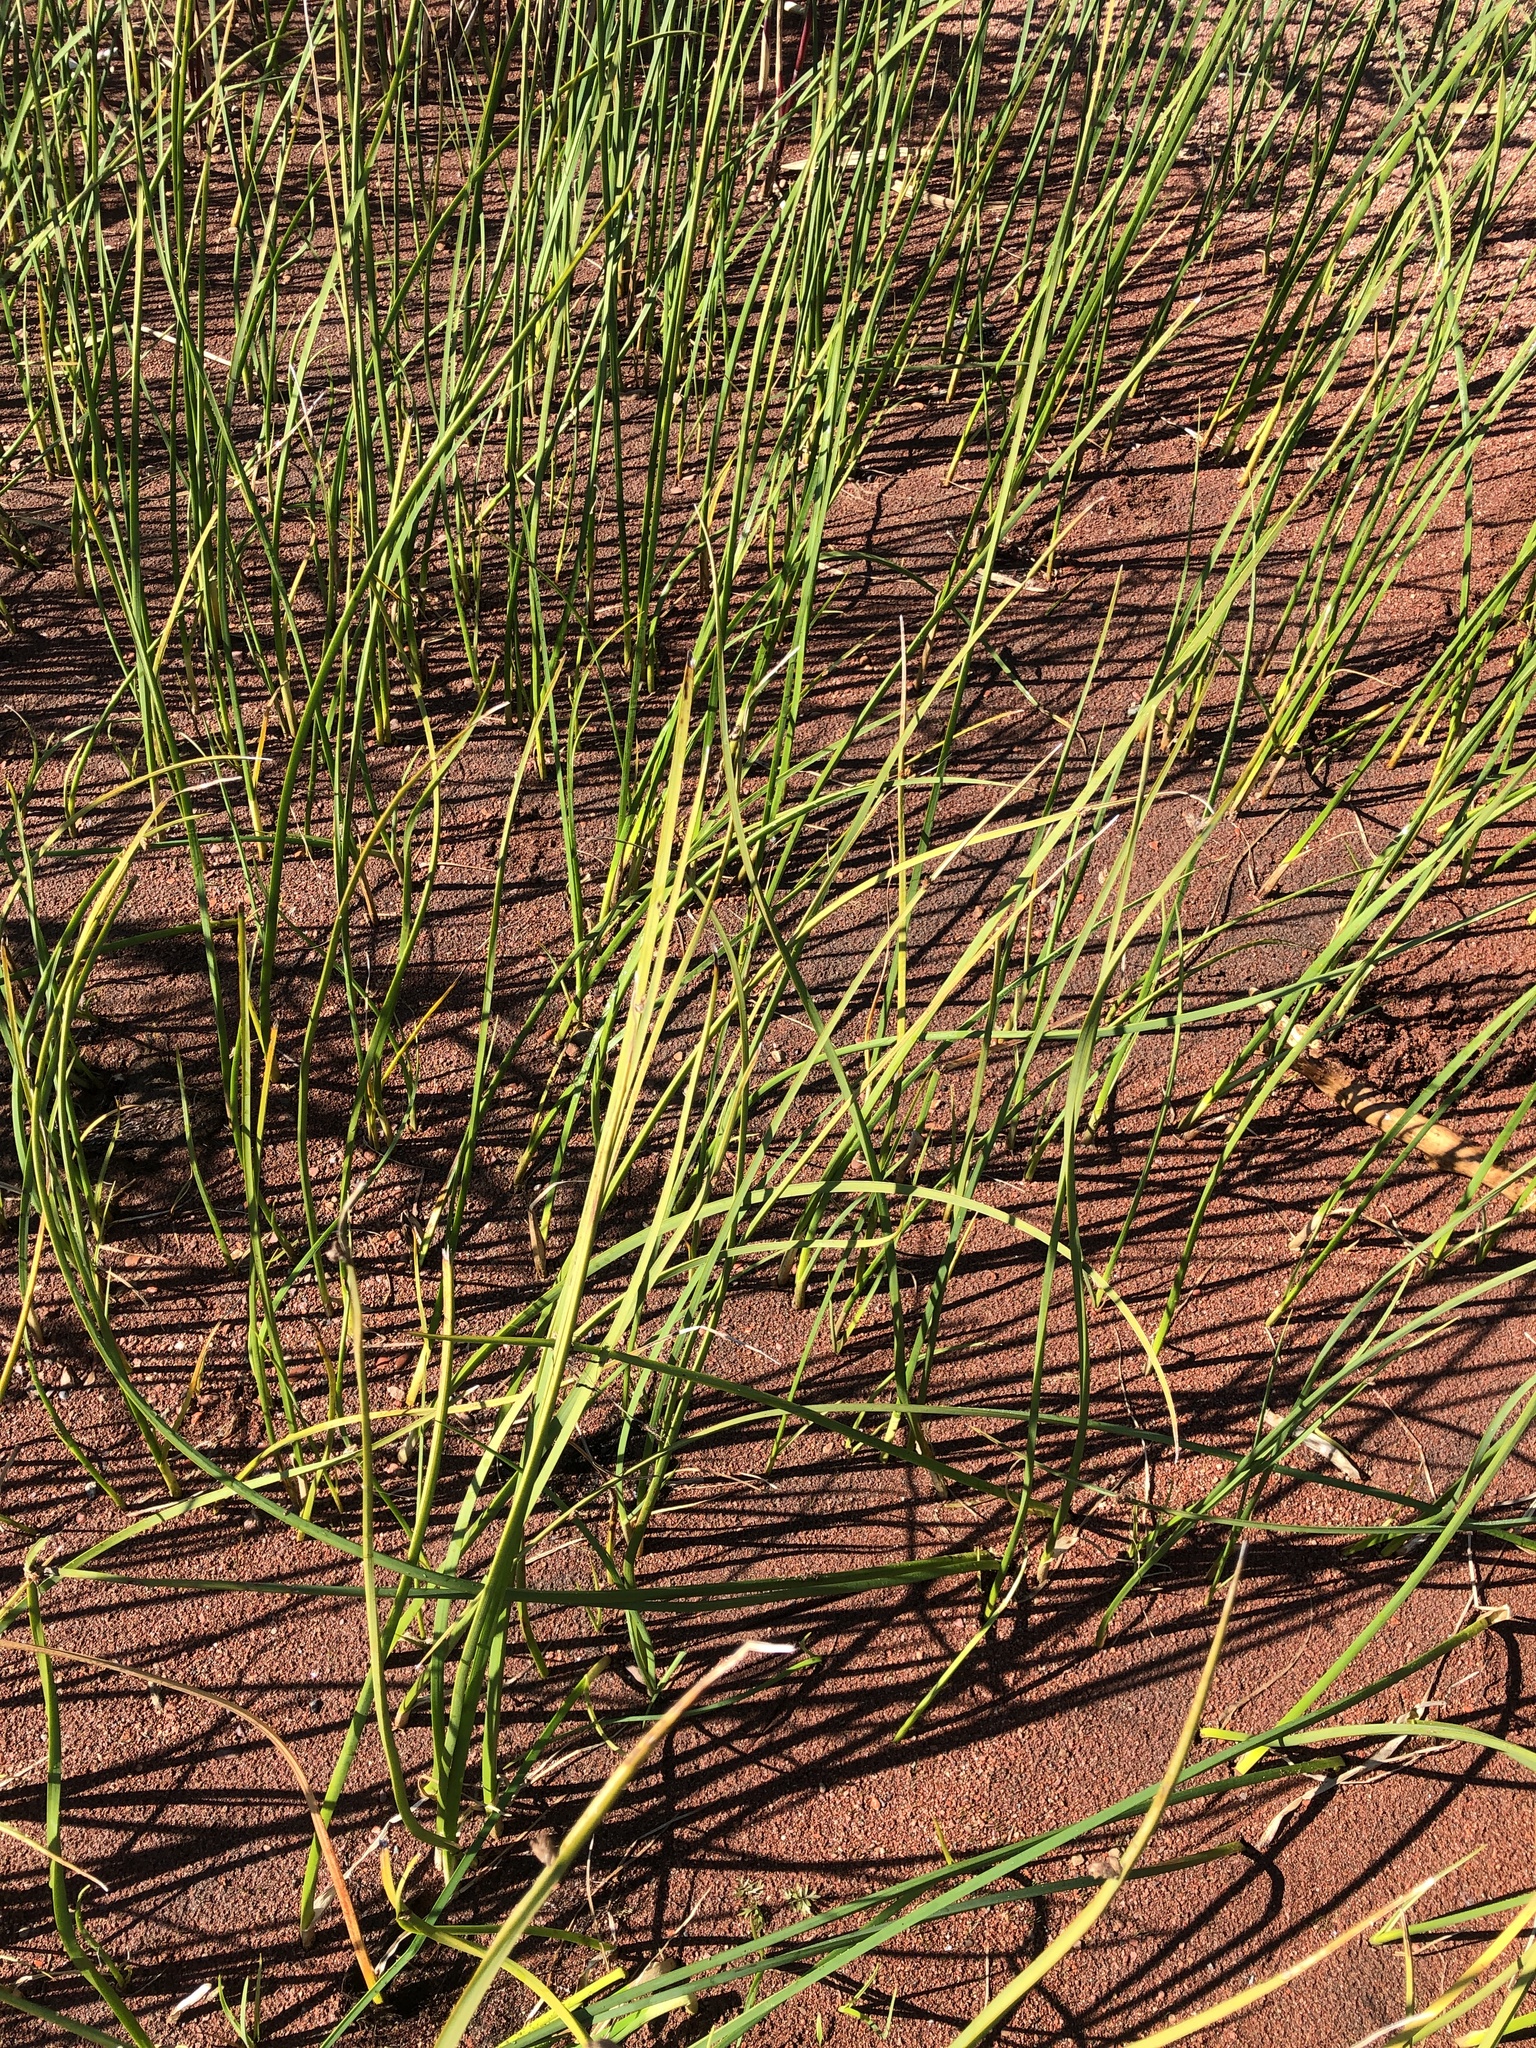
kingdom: Plantae
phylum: Tracheophyta
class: Liliopsida
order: Poales
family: Cyperaceae
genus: Schoenoplectus
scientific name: Schoenoplectus pungens
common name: Sharp club-rush
